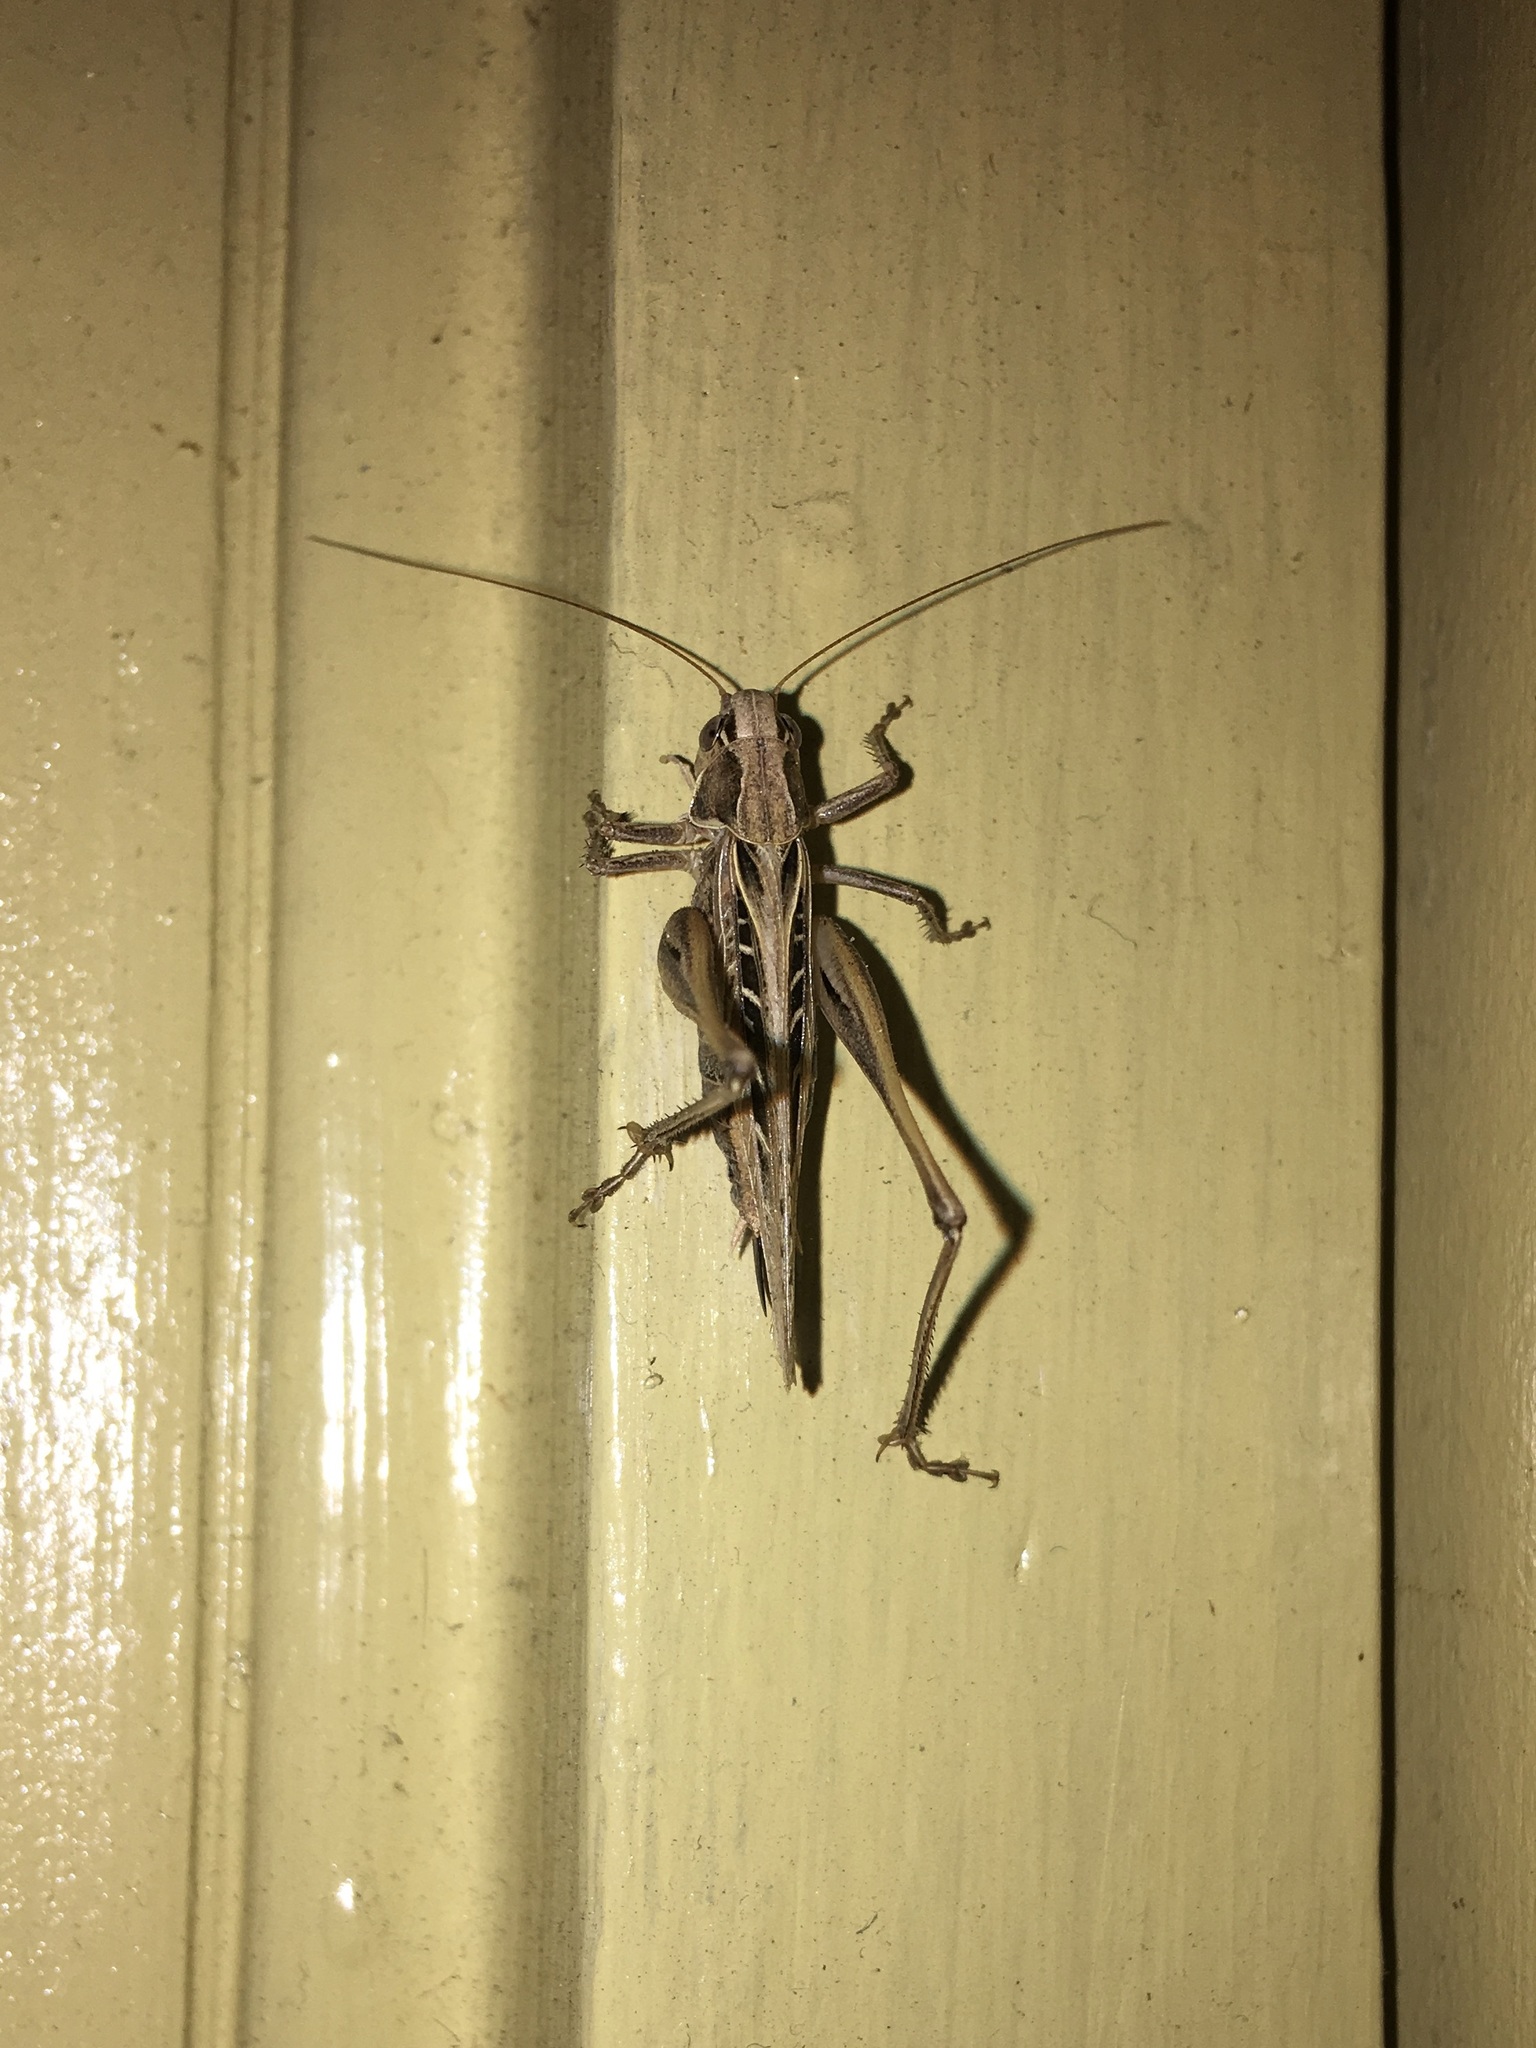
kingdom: Animalia
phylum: Arthropoda
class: Insecta
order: Orthoptera
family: Tettigoniidae
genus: Tessellana
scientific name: Tessellana tessellata
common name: Grasshopper
